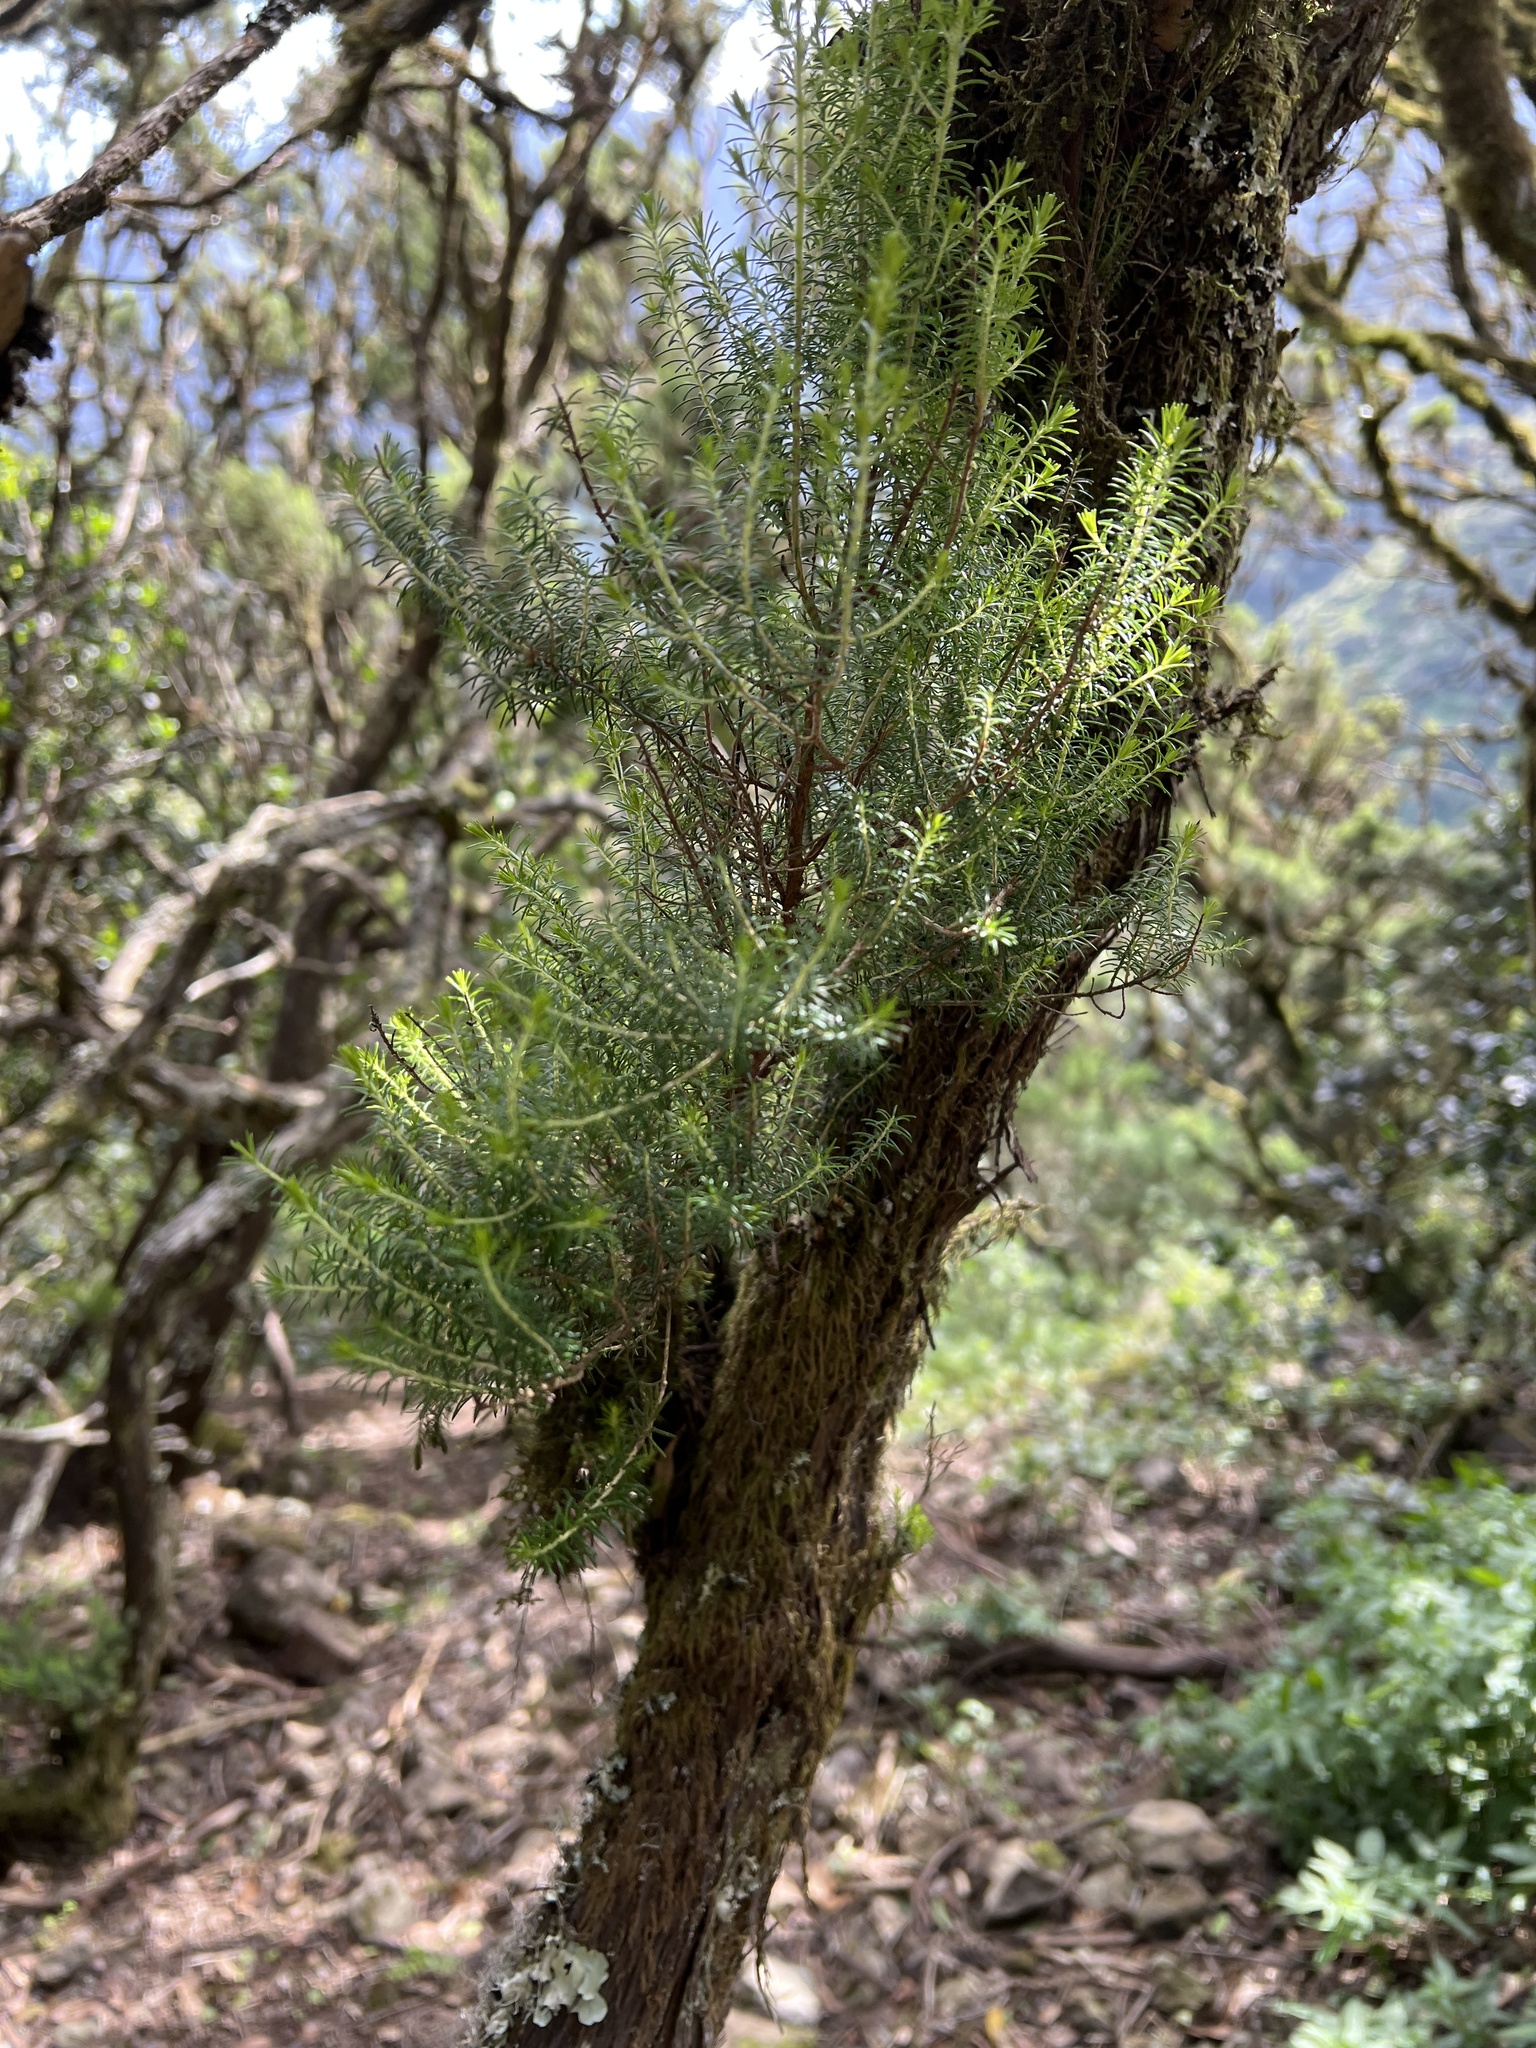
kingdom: Plantae
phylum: Tracheophyta
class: Magnoliopsida
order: Ericales
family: Ericaceae
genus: Erica
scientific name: Erica canariensis
